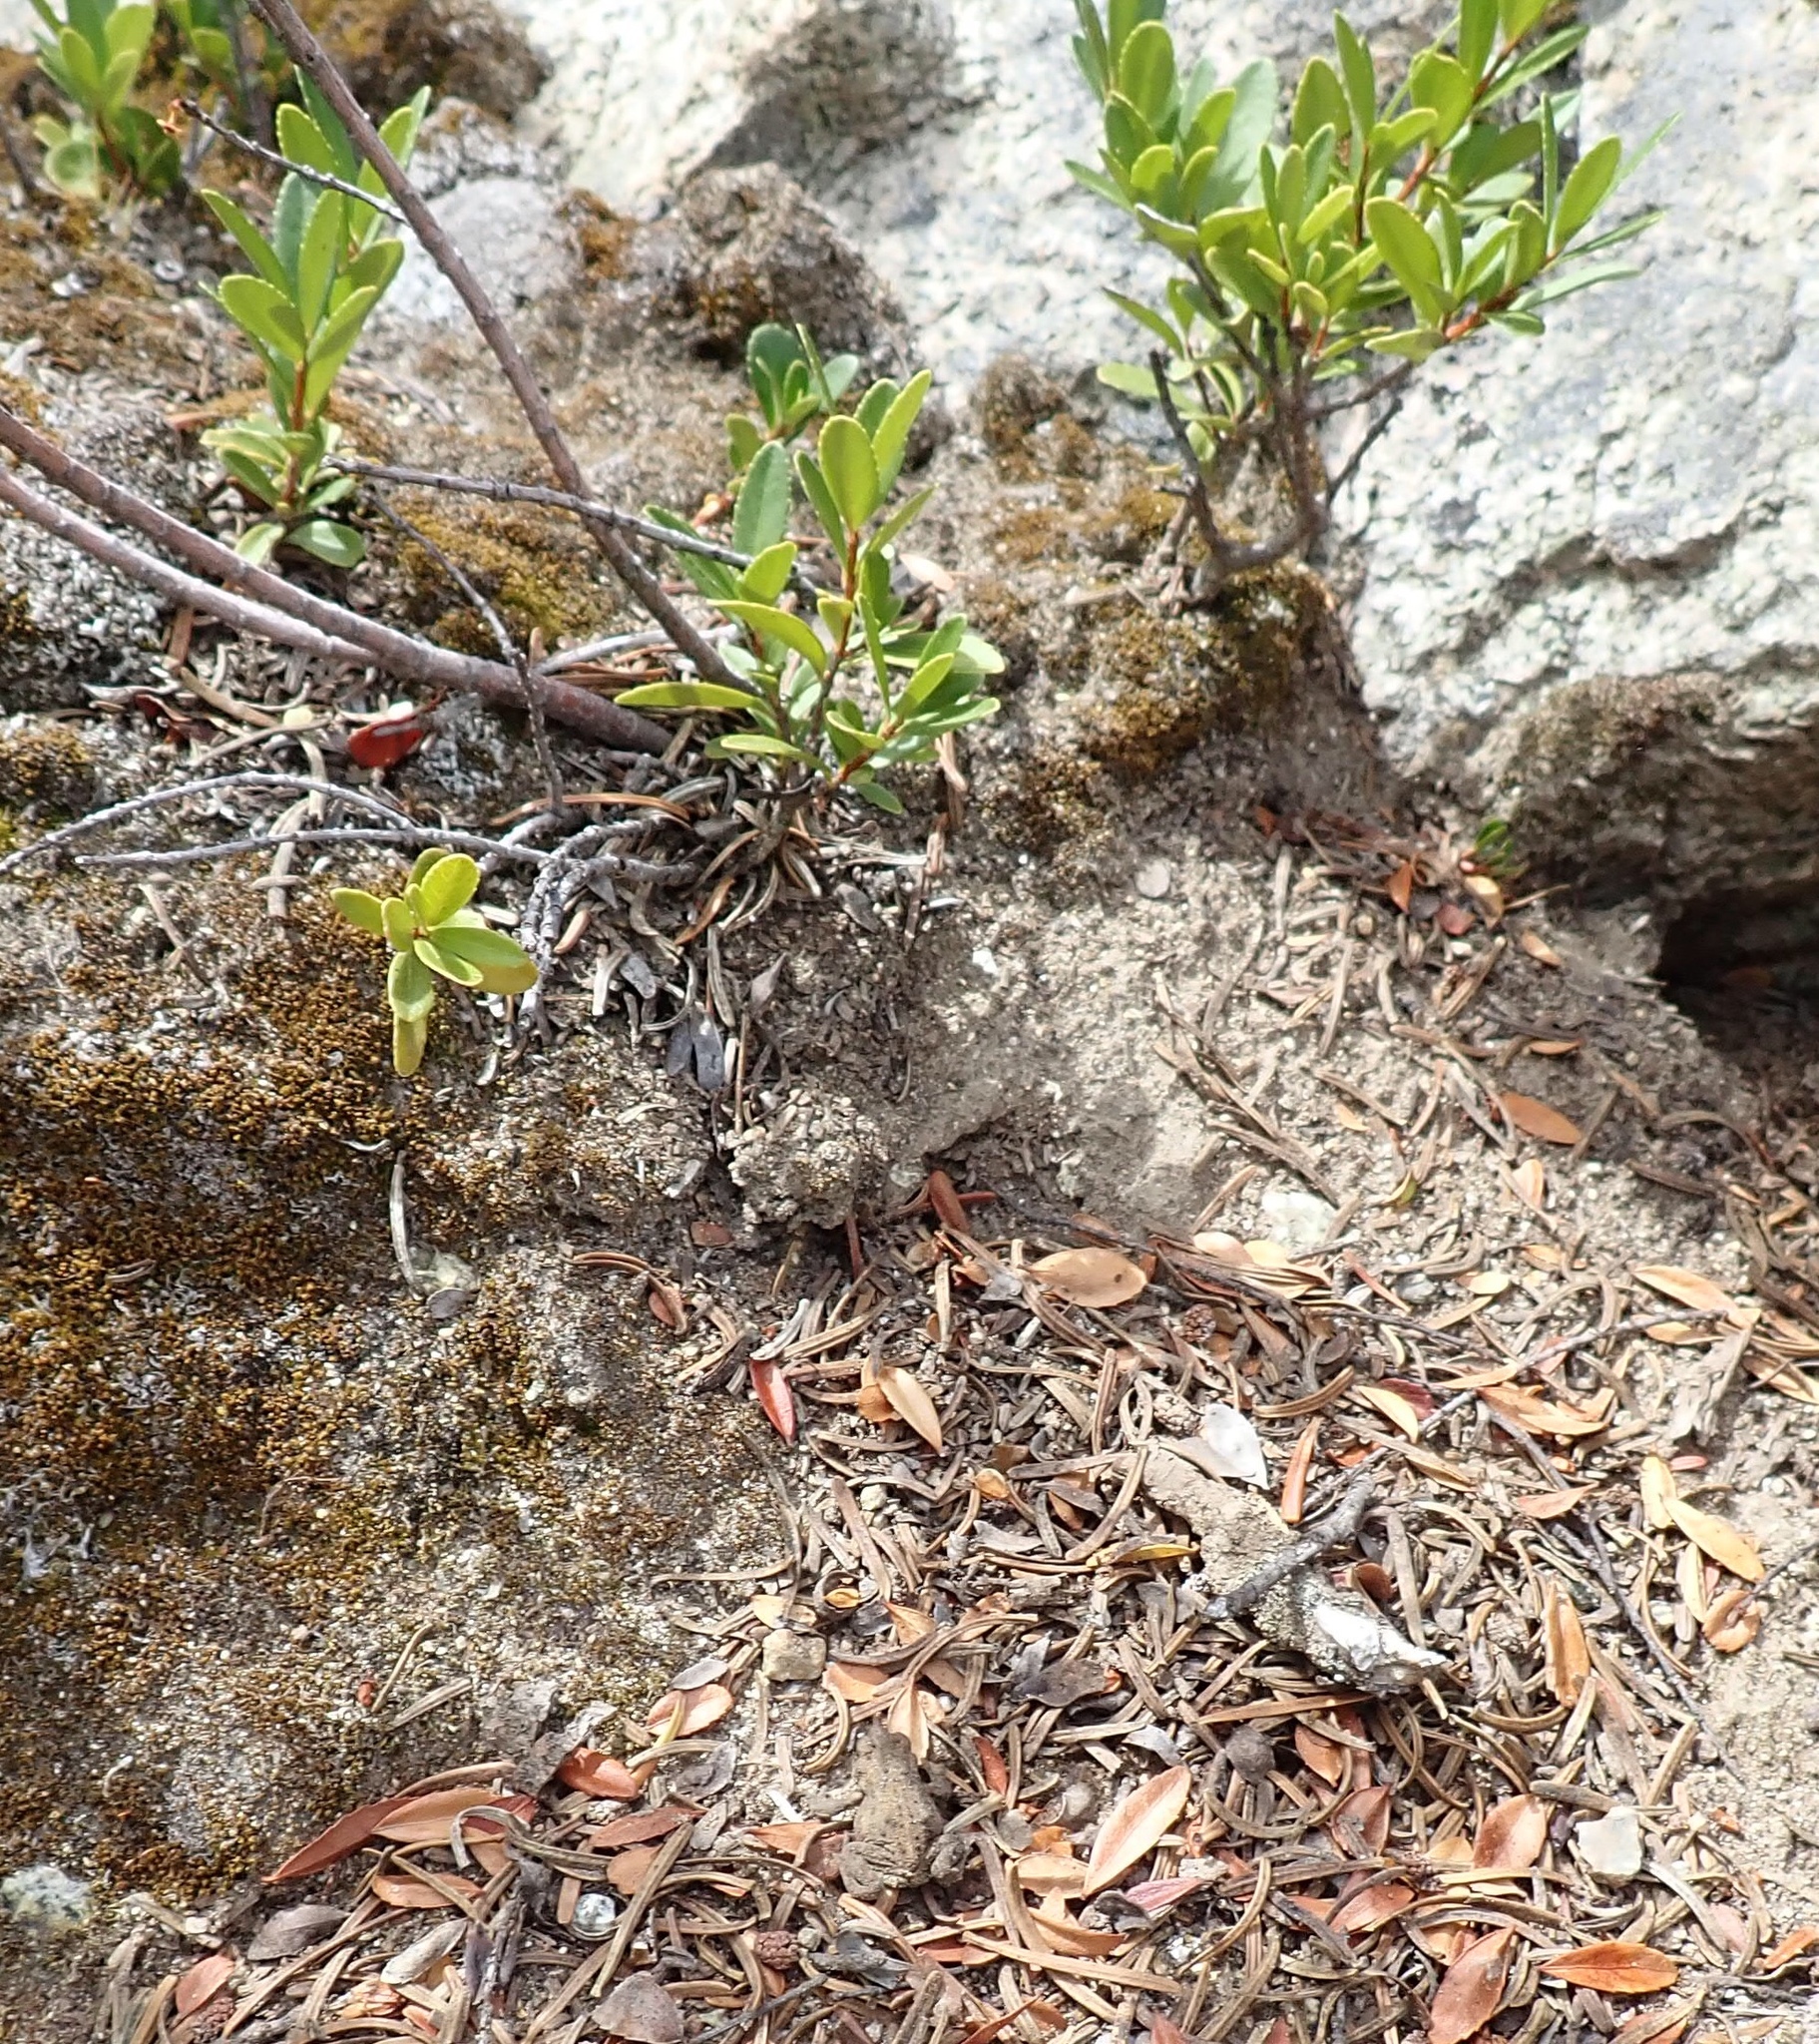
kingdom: Animalia
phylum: Chordata
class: Amphibia
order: Anura
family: Bufonidae
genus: Anaxyrus
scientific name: Anaxyrus boreas
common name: Western toad
